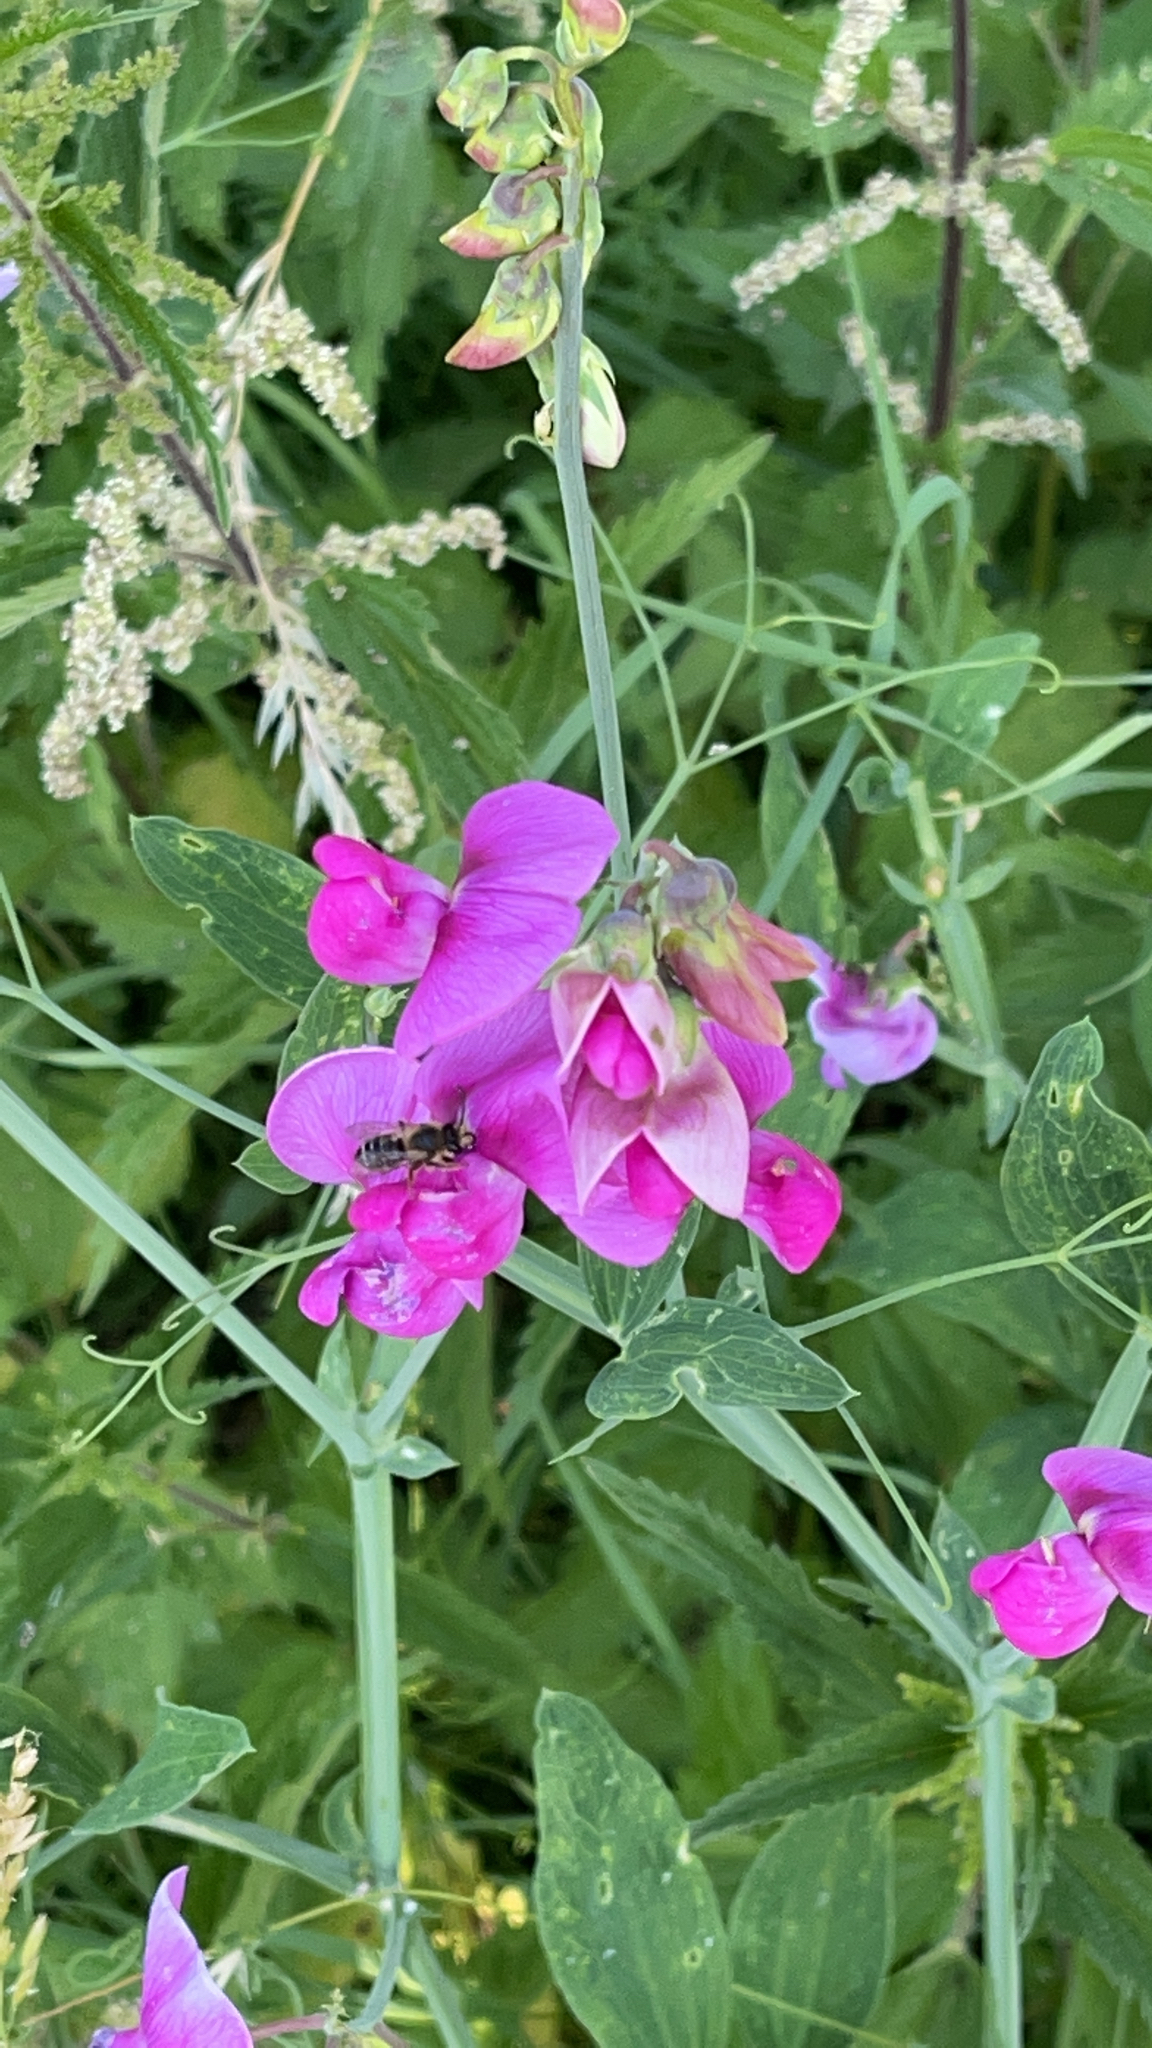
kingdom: Plantae
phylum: Tracheophyta
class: Magnoliopsida
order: Fabales
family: Fabaceae
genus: Lathyrus
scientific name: Lathyrus latifolius
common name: Perennial pea
